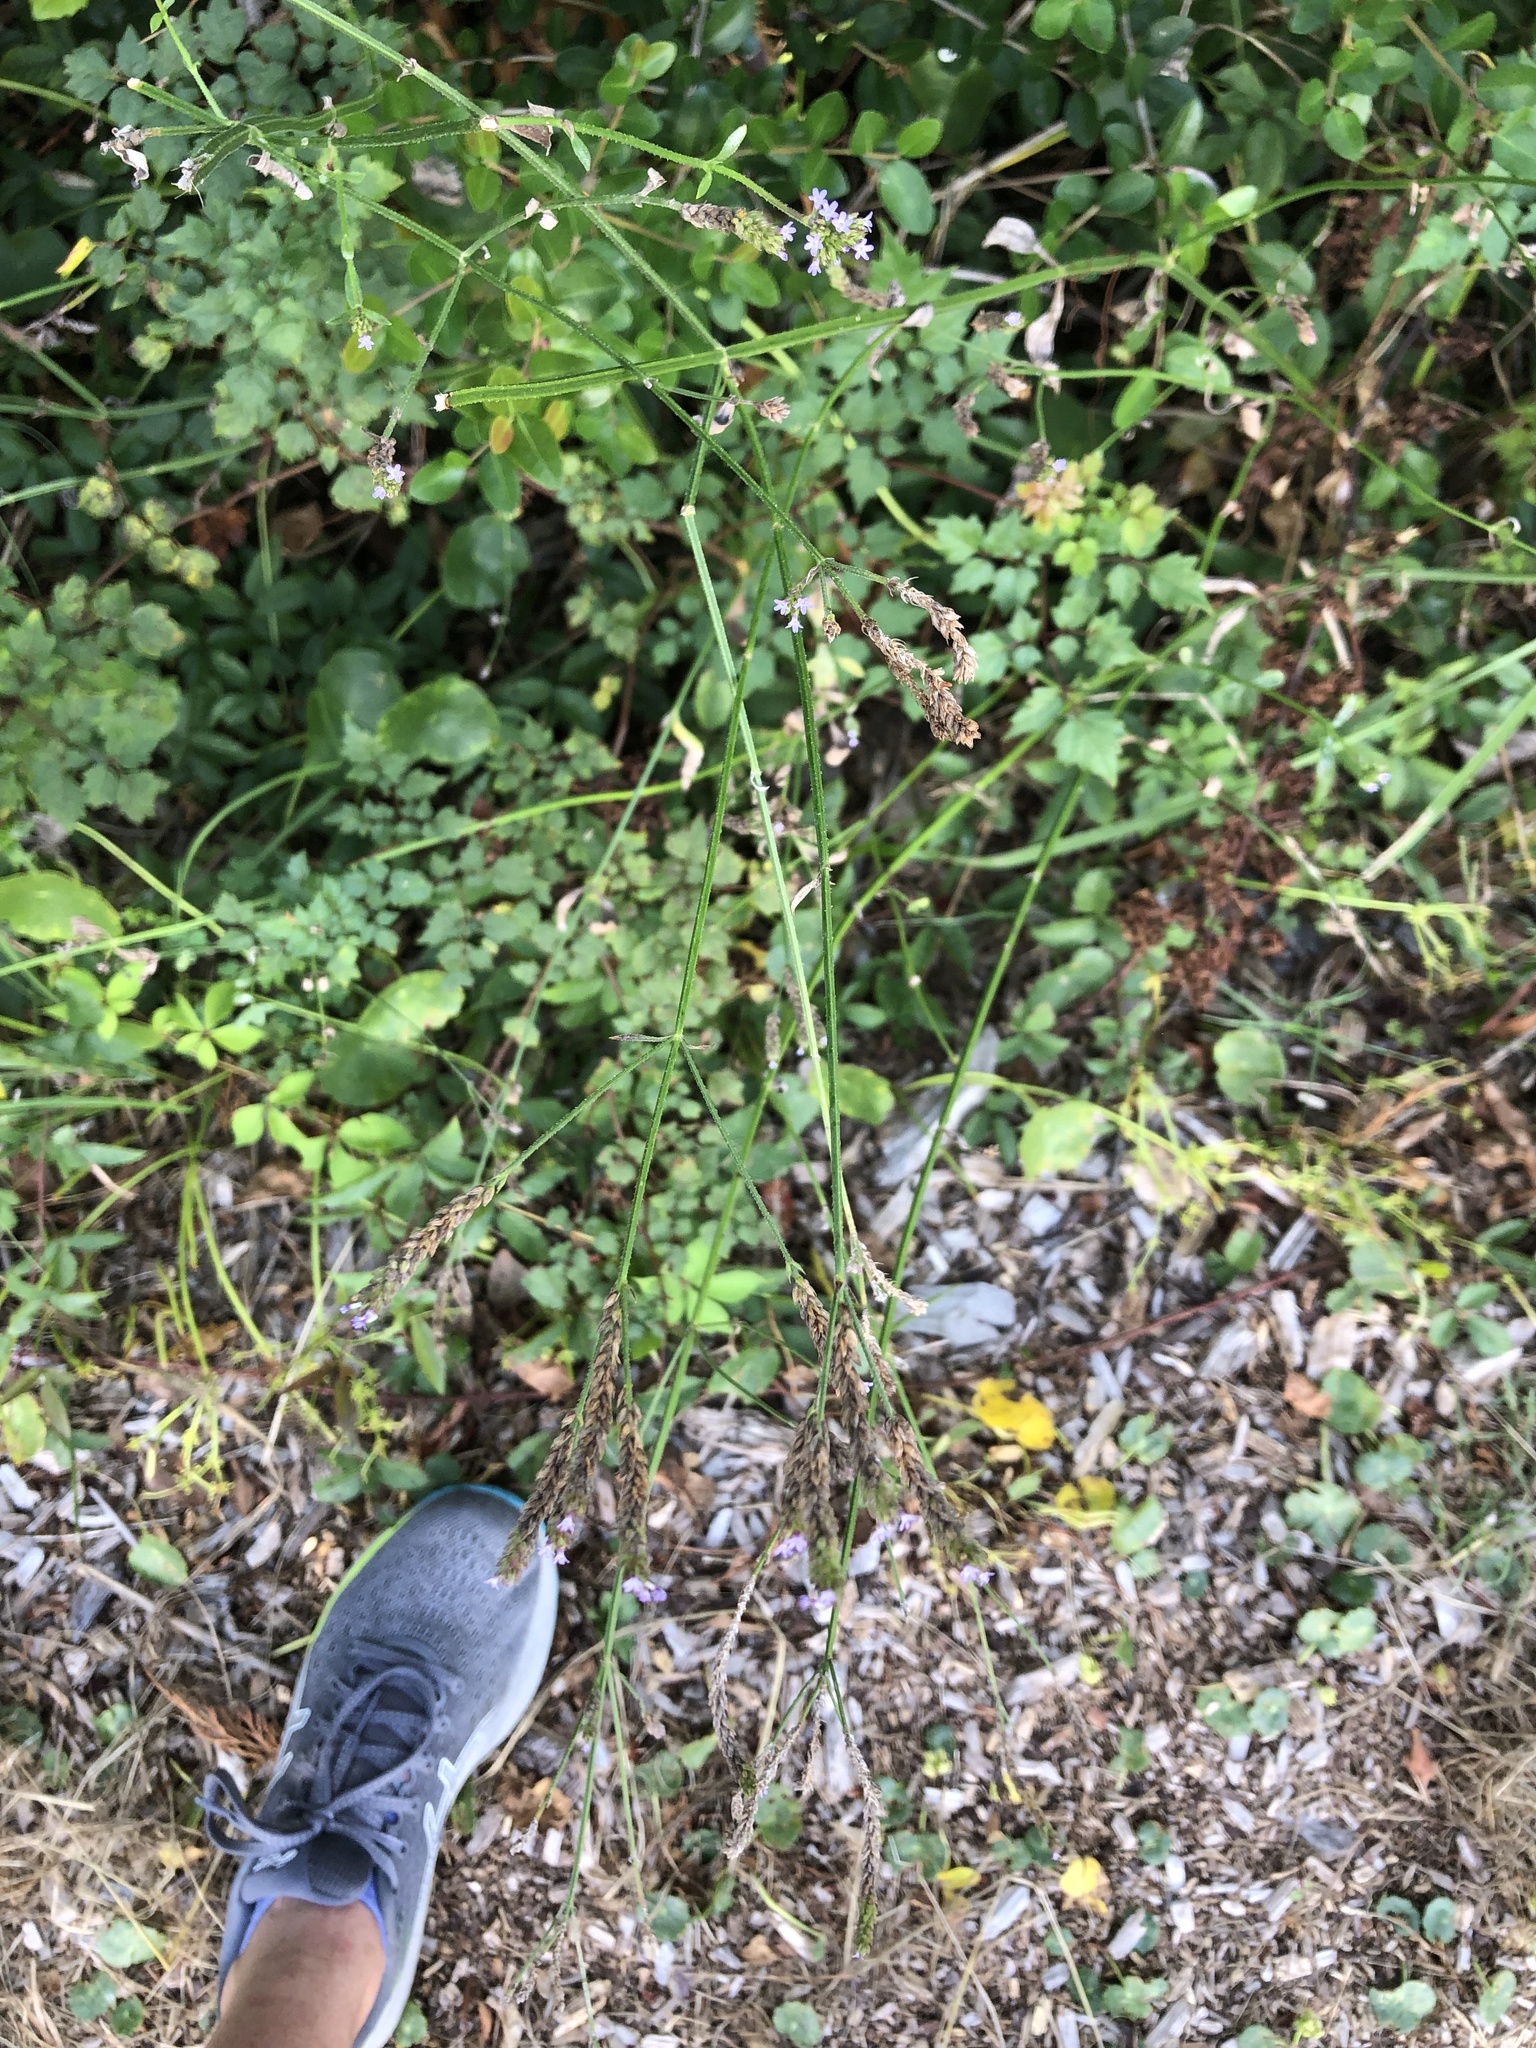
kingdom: Plantae
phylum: Tracheophyta
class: Magnoliopsida
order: Lamiales
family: Verbenaceae
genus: Verbena
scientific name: Verbena brasiliensis
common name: Brazilian vervain
